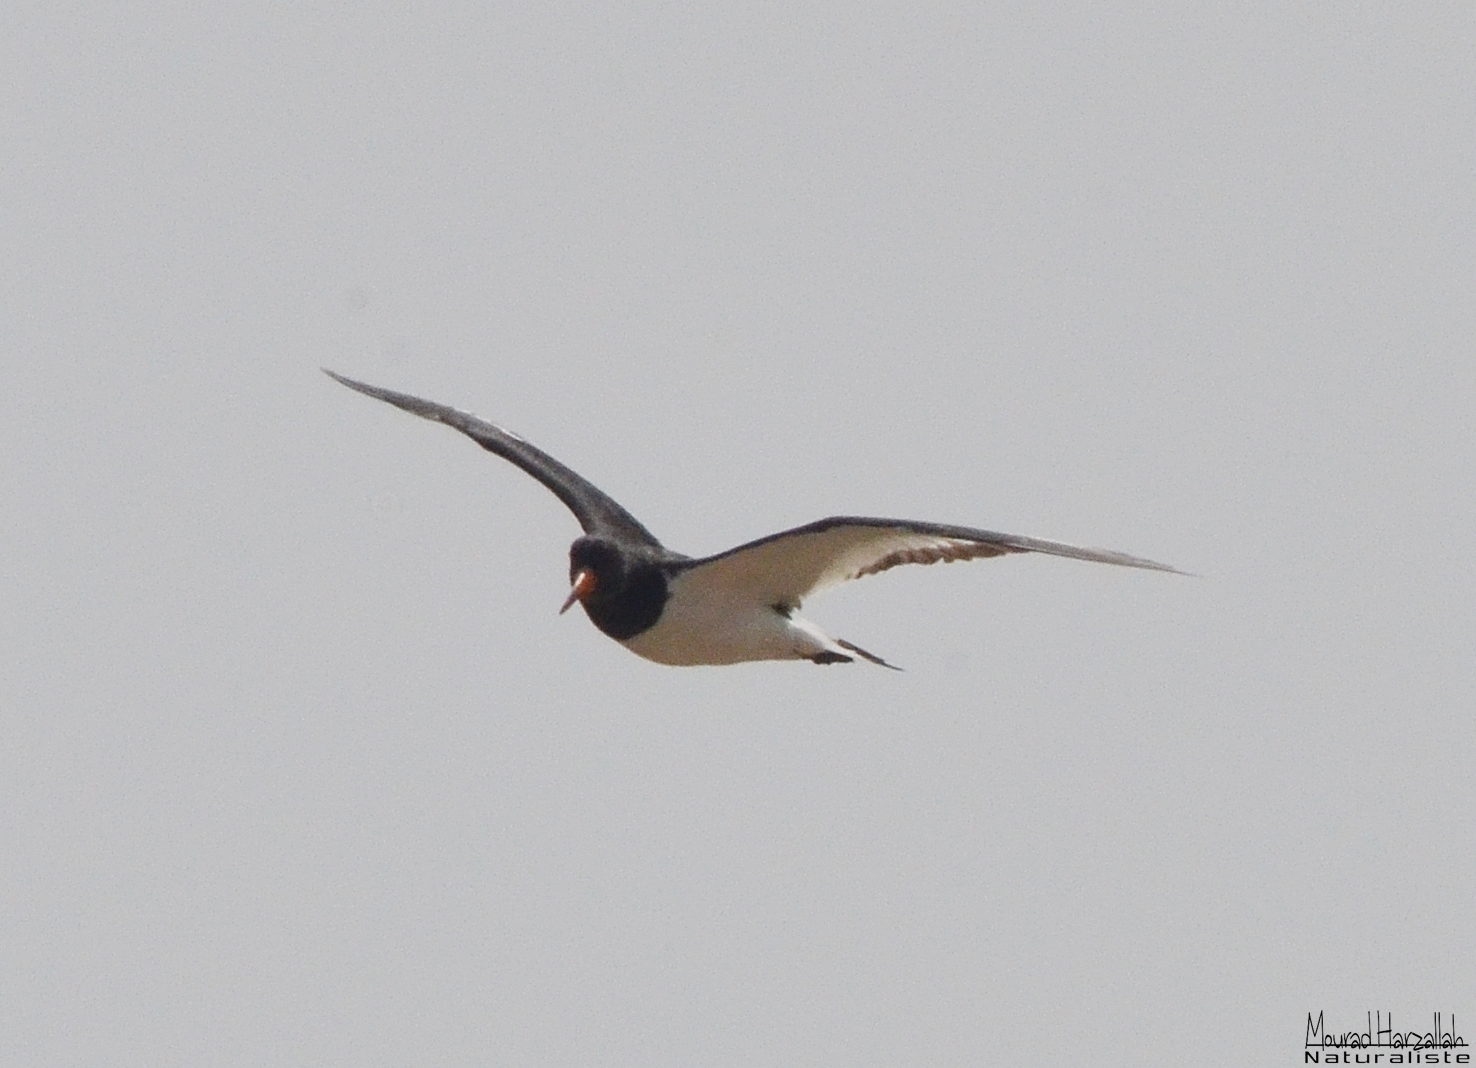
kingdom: Animalia
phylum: Chordata
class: Aves
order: Charadriiformes
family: Haematopodidae
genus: Haematopus
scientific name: Haematopus ostralegus
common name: Eurasian oystercatcher
